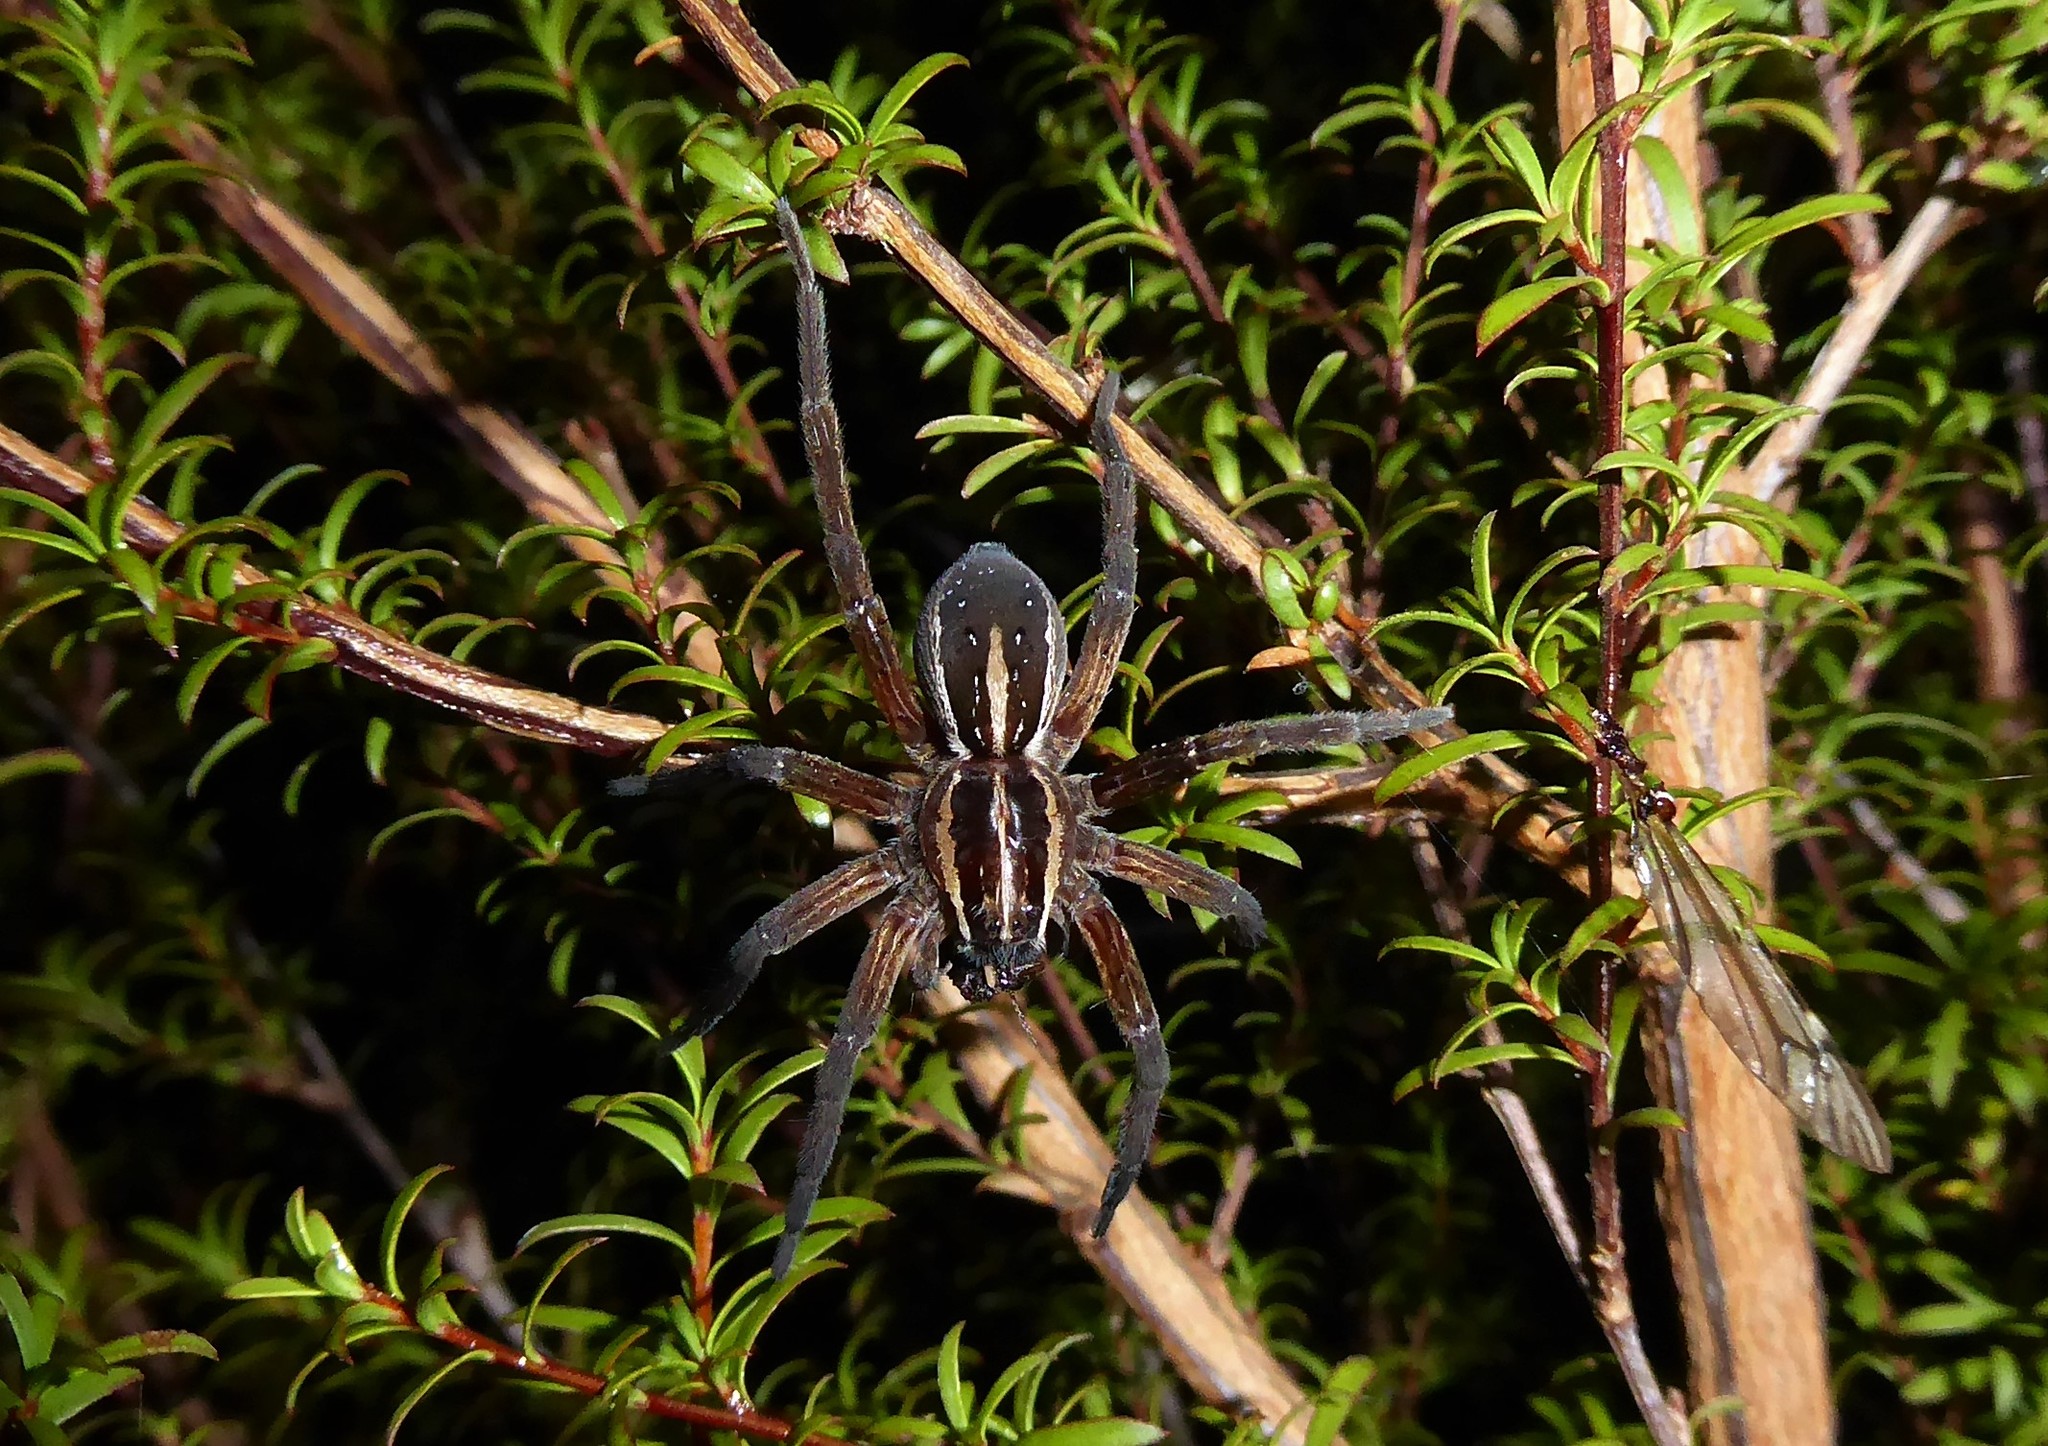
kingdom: Animalia
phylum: Arthropoda
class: Arachnida
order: Araneae
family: Pisauridae
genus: Dolomedes
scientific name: Dolomedes minor
